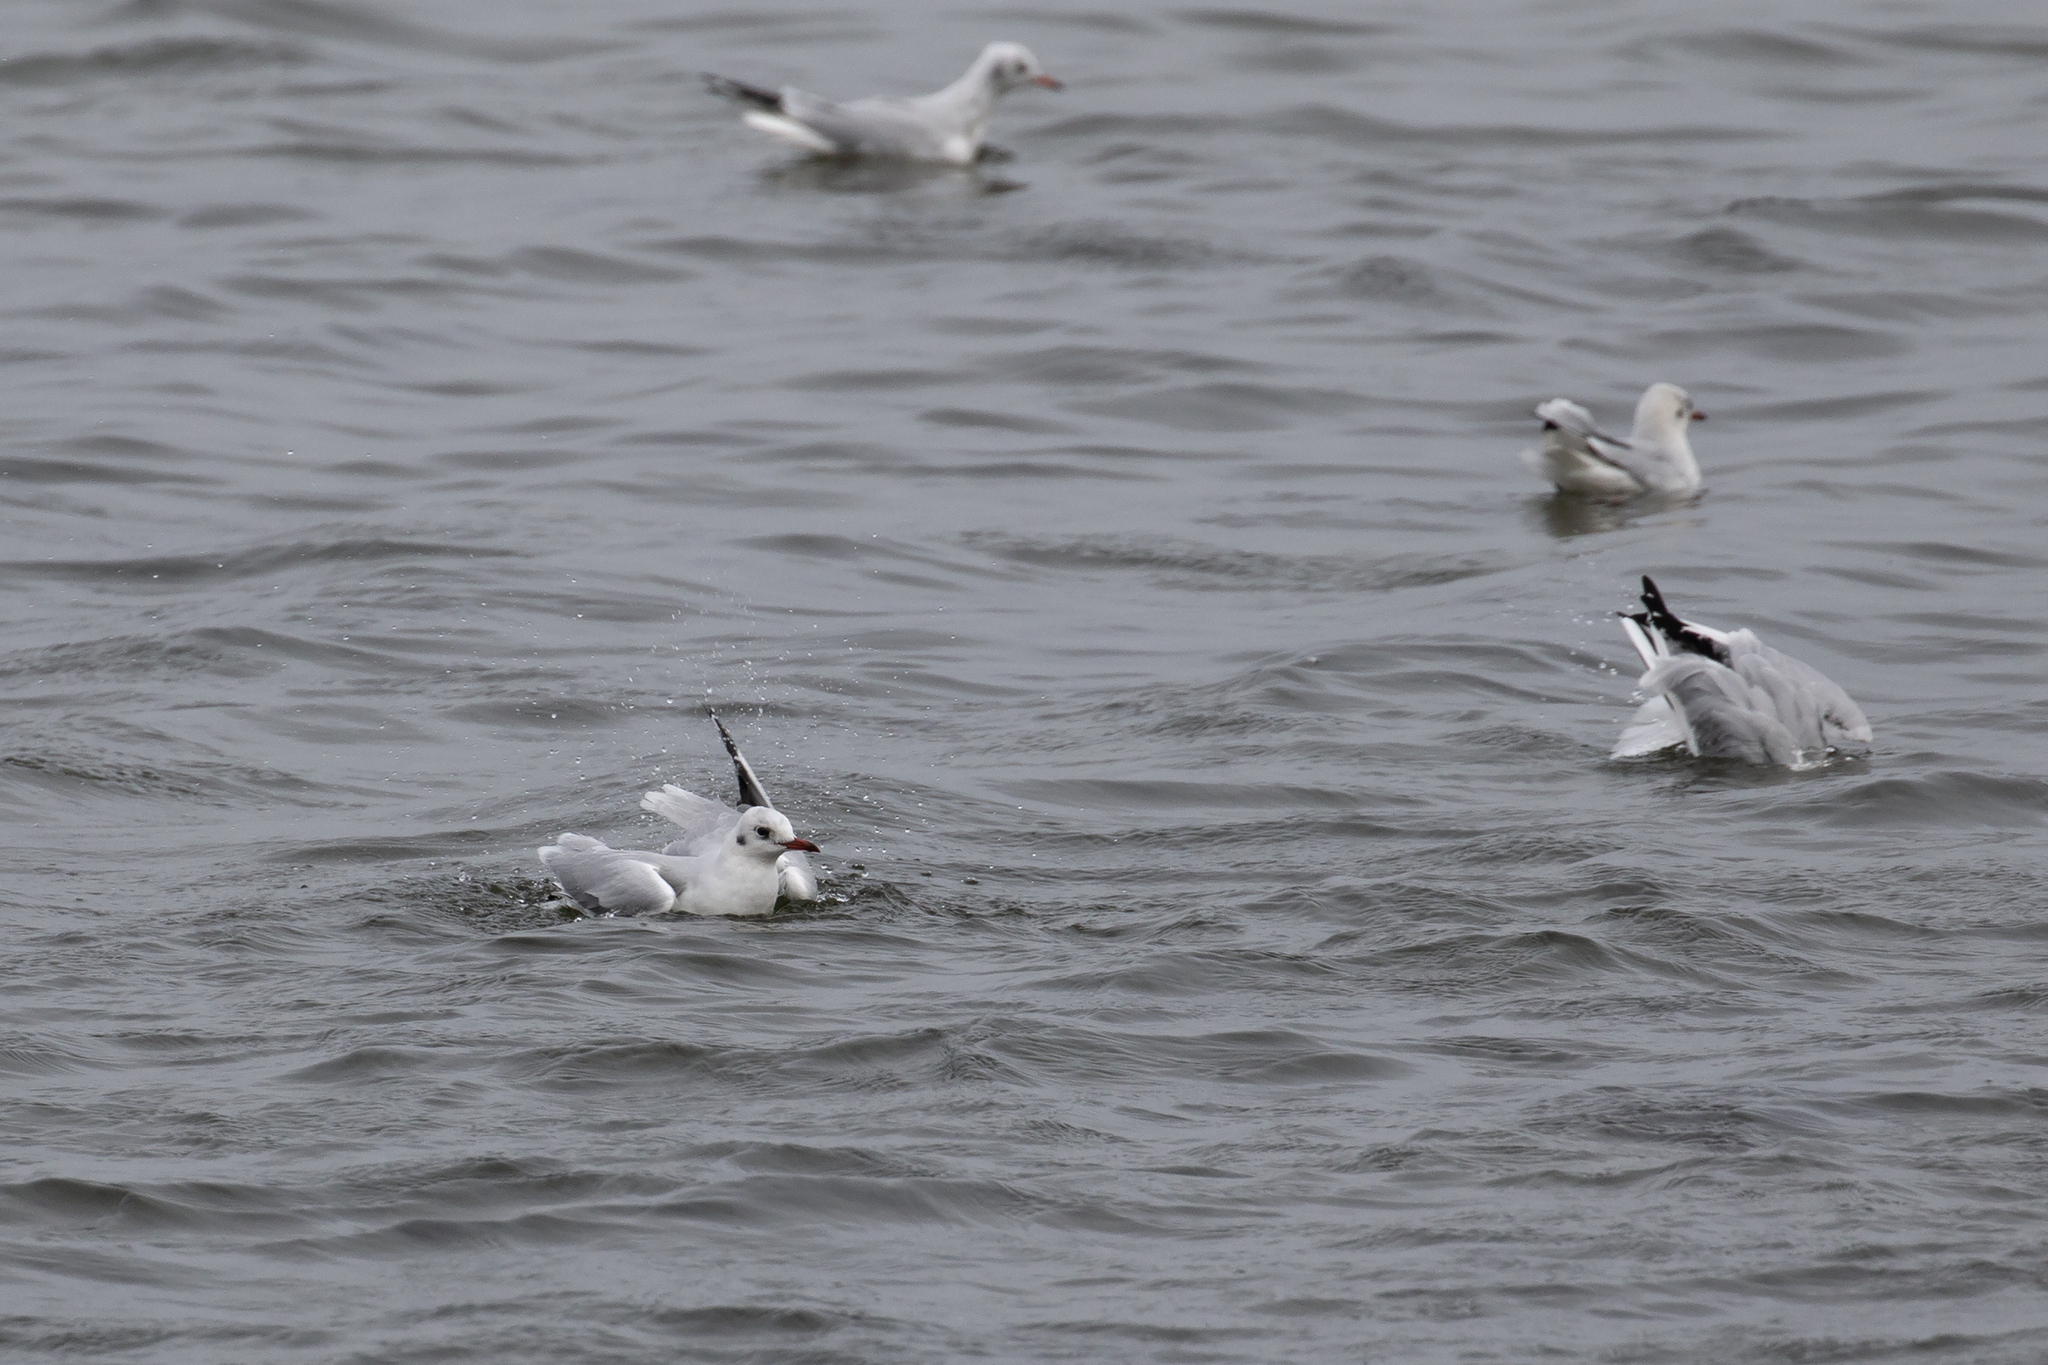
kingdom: Animalia
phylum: Chordata
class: Aves
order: Charadriiformes
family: Laridae
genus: Chroicocephalus
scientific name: Chroicocephalus ridibundus
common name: Black-headed gull
